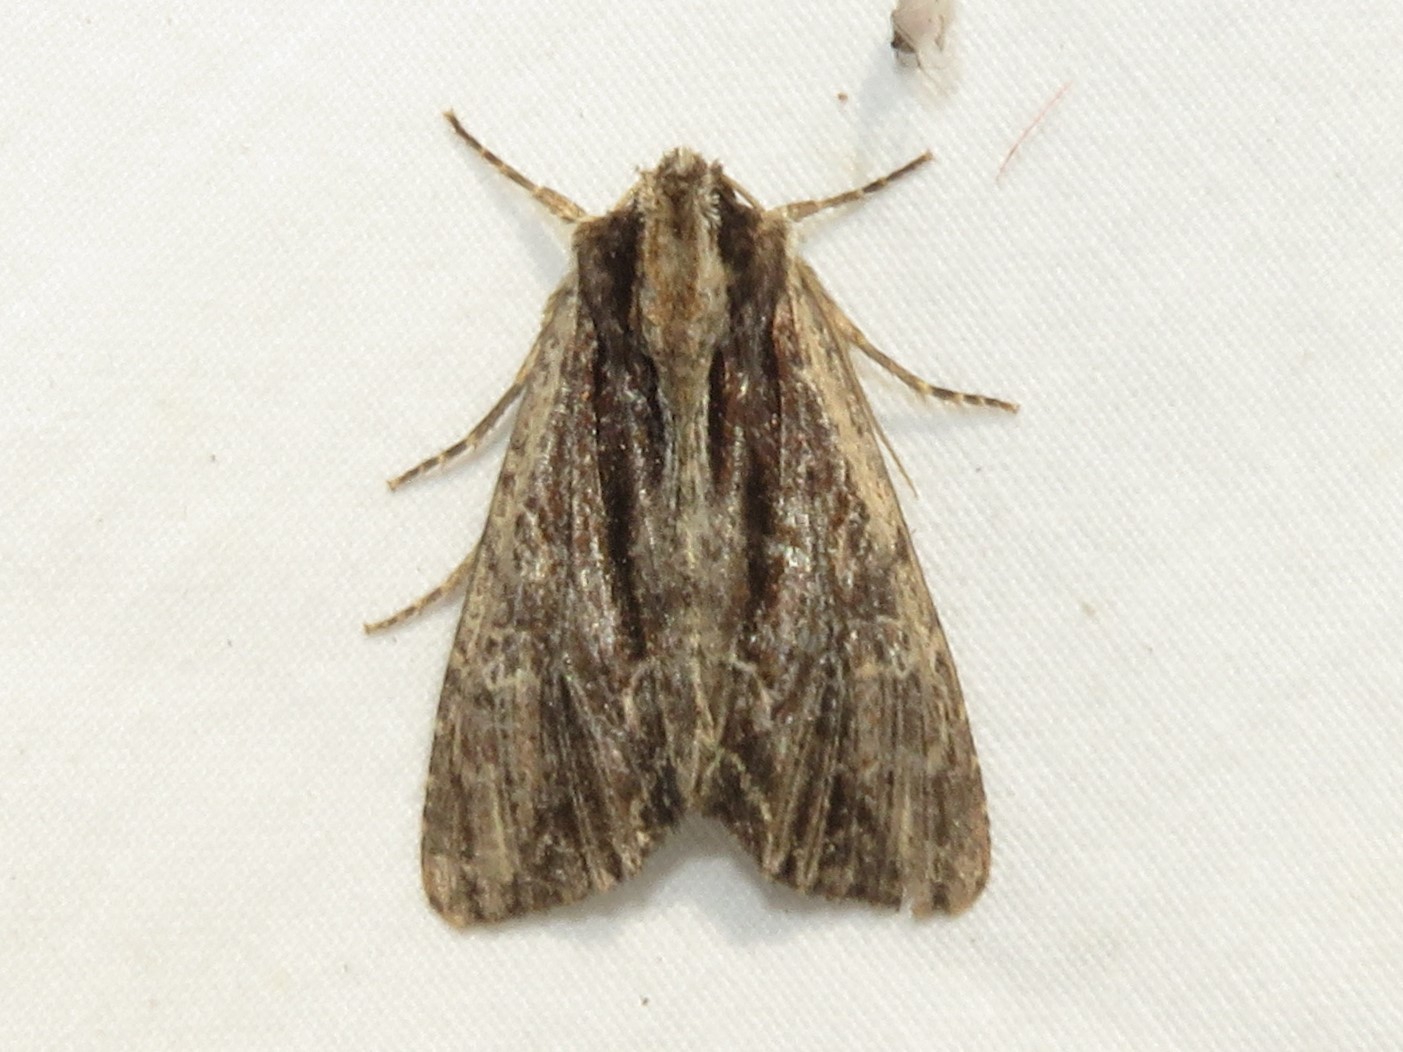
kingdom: Animalia
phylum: Arthropoda
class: Insecta
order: Lepidoptera
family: Noctuidae
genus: Achatia
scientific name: Achatia confusa
